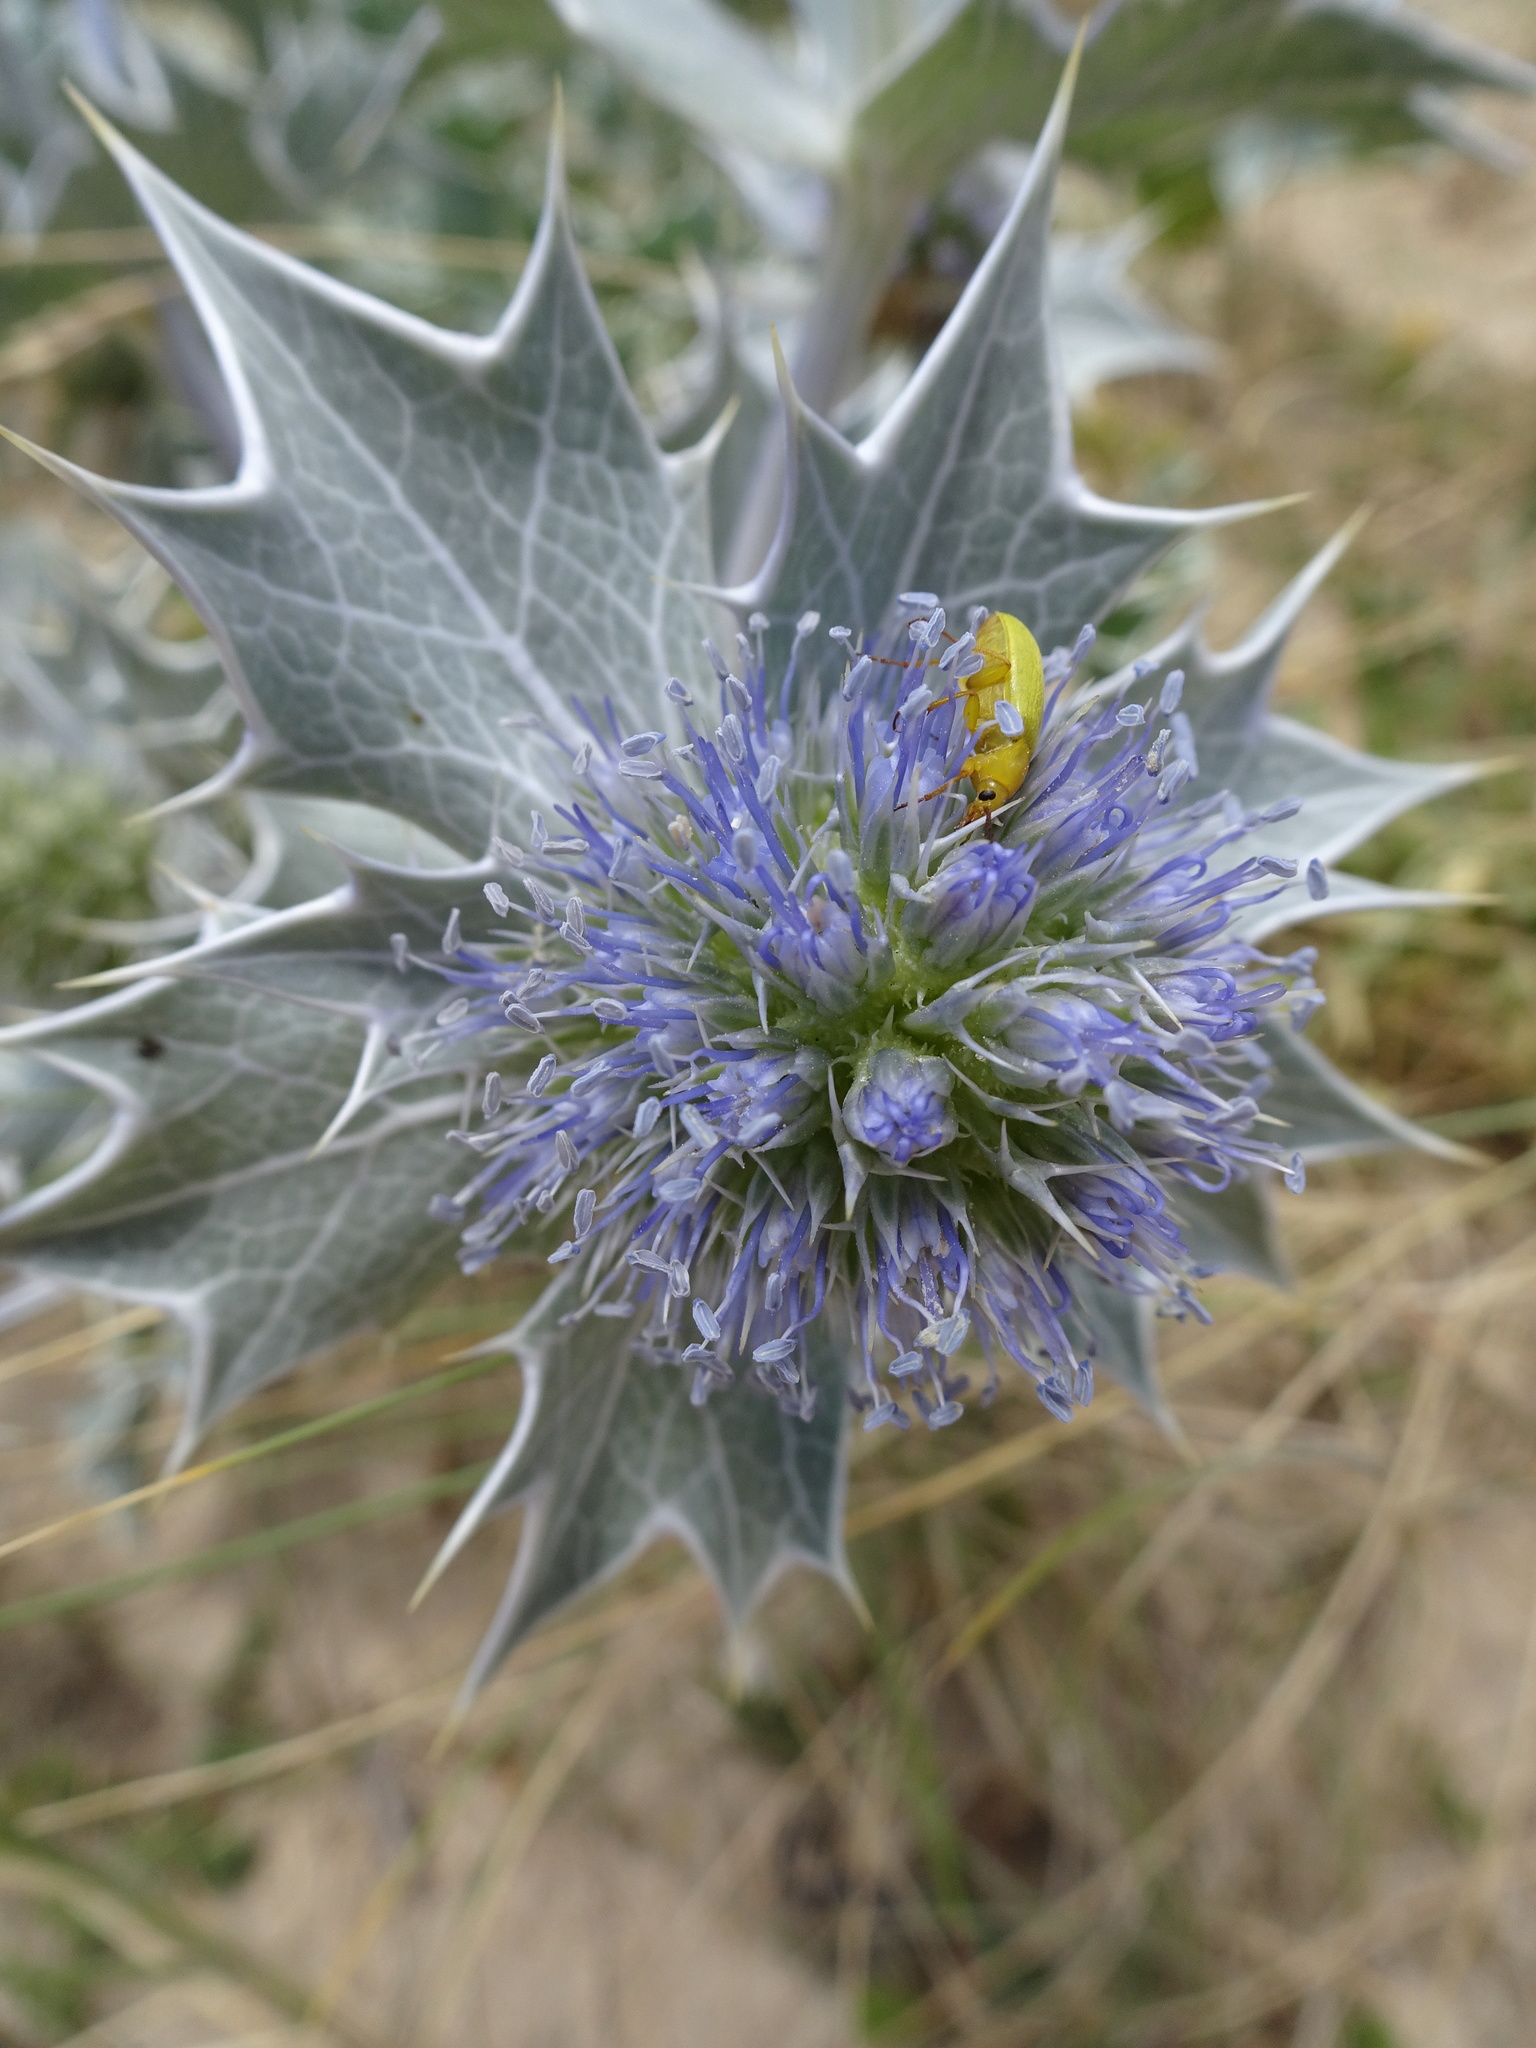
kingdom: Plantae
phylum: Tracheophyta
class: Magnoliopsida
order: Apiales
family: Apiaceae
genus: Eryngium
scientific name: Eryngium maritimum
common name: Sea-holly
